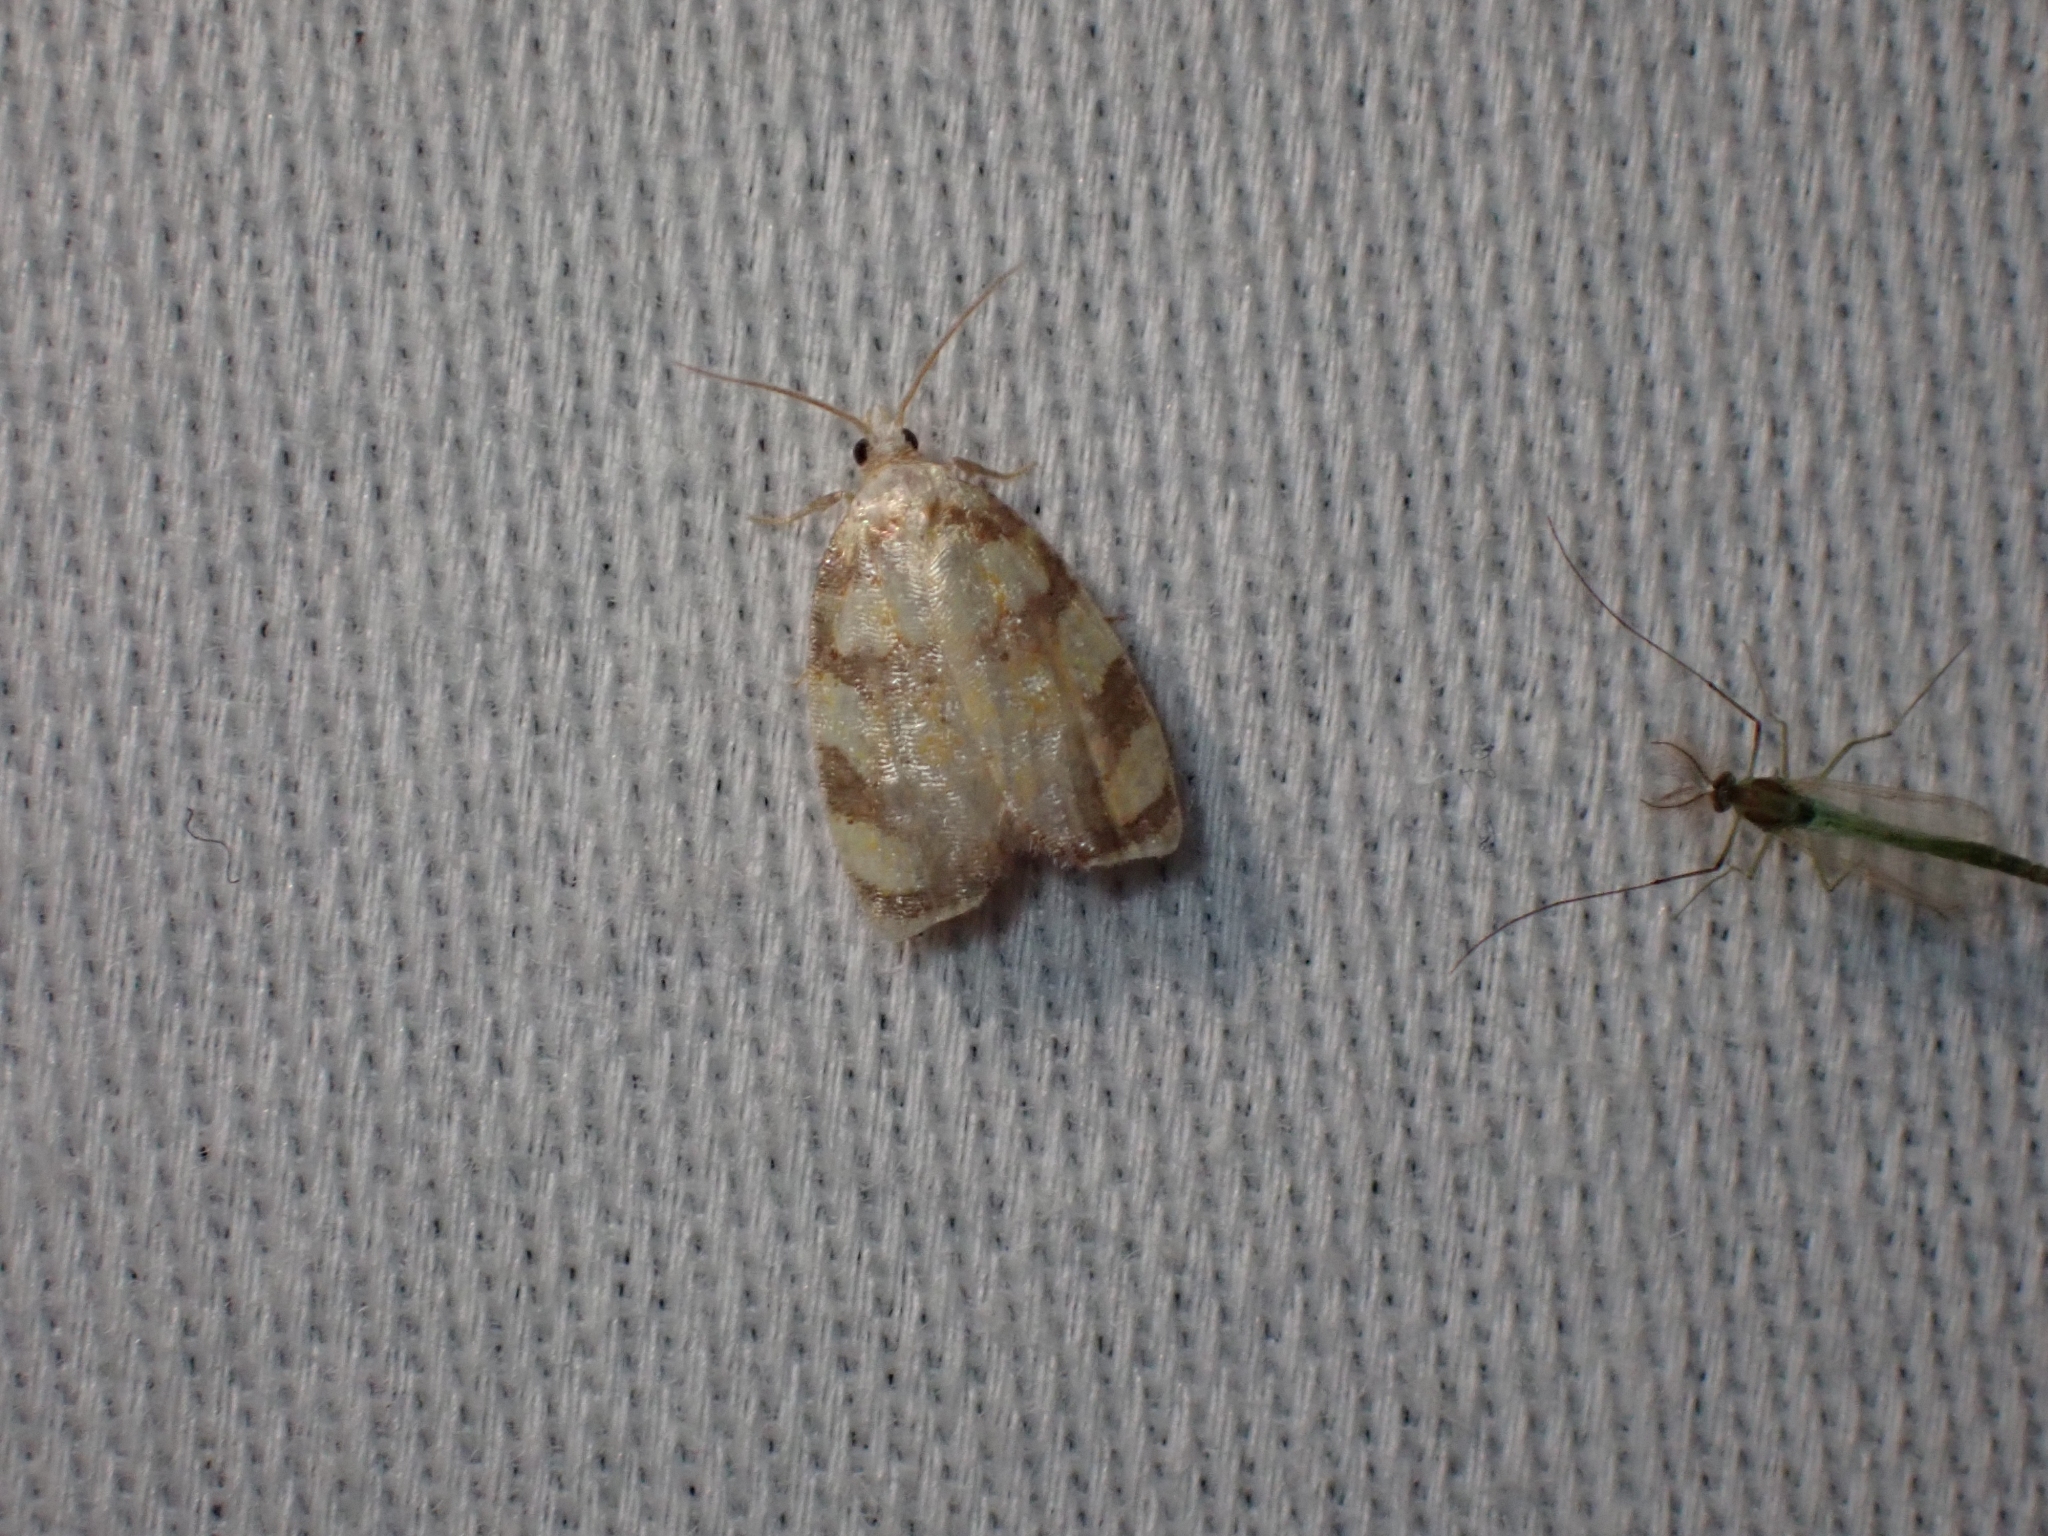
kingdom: Animalia
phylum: Arthropoda
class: Insecta
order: Lepidoptera
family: Tortricidae
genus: Acleris
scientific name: Acleris albicomana
